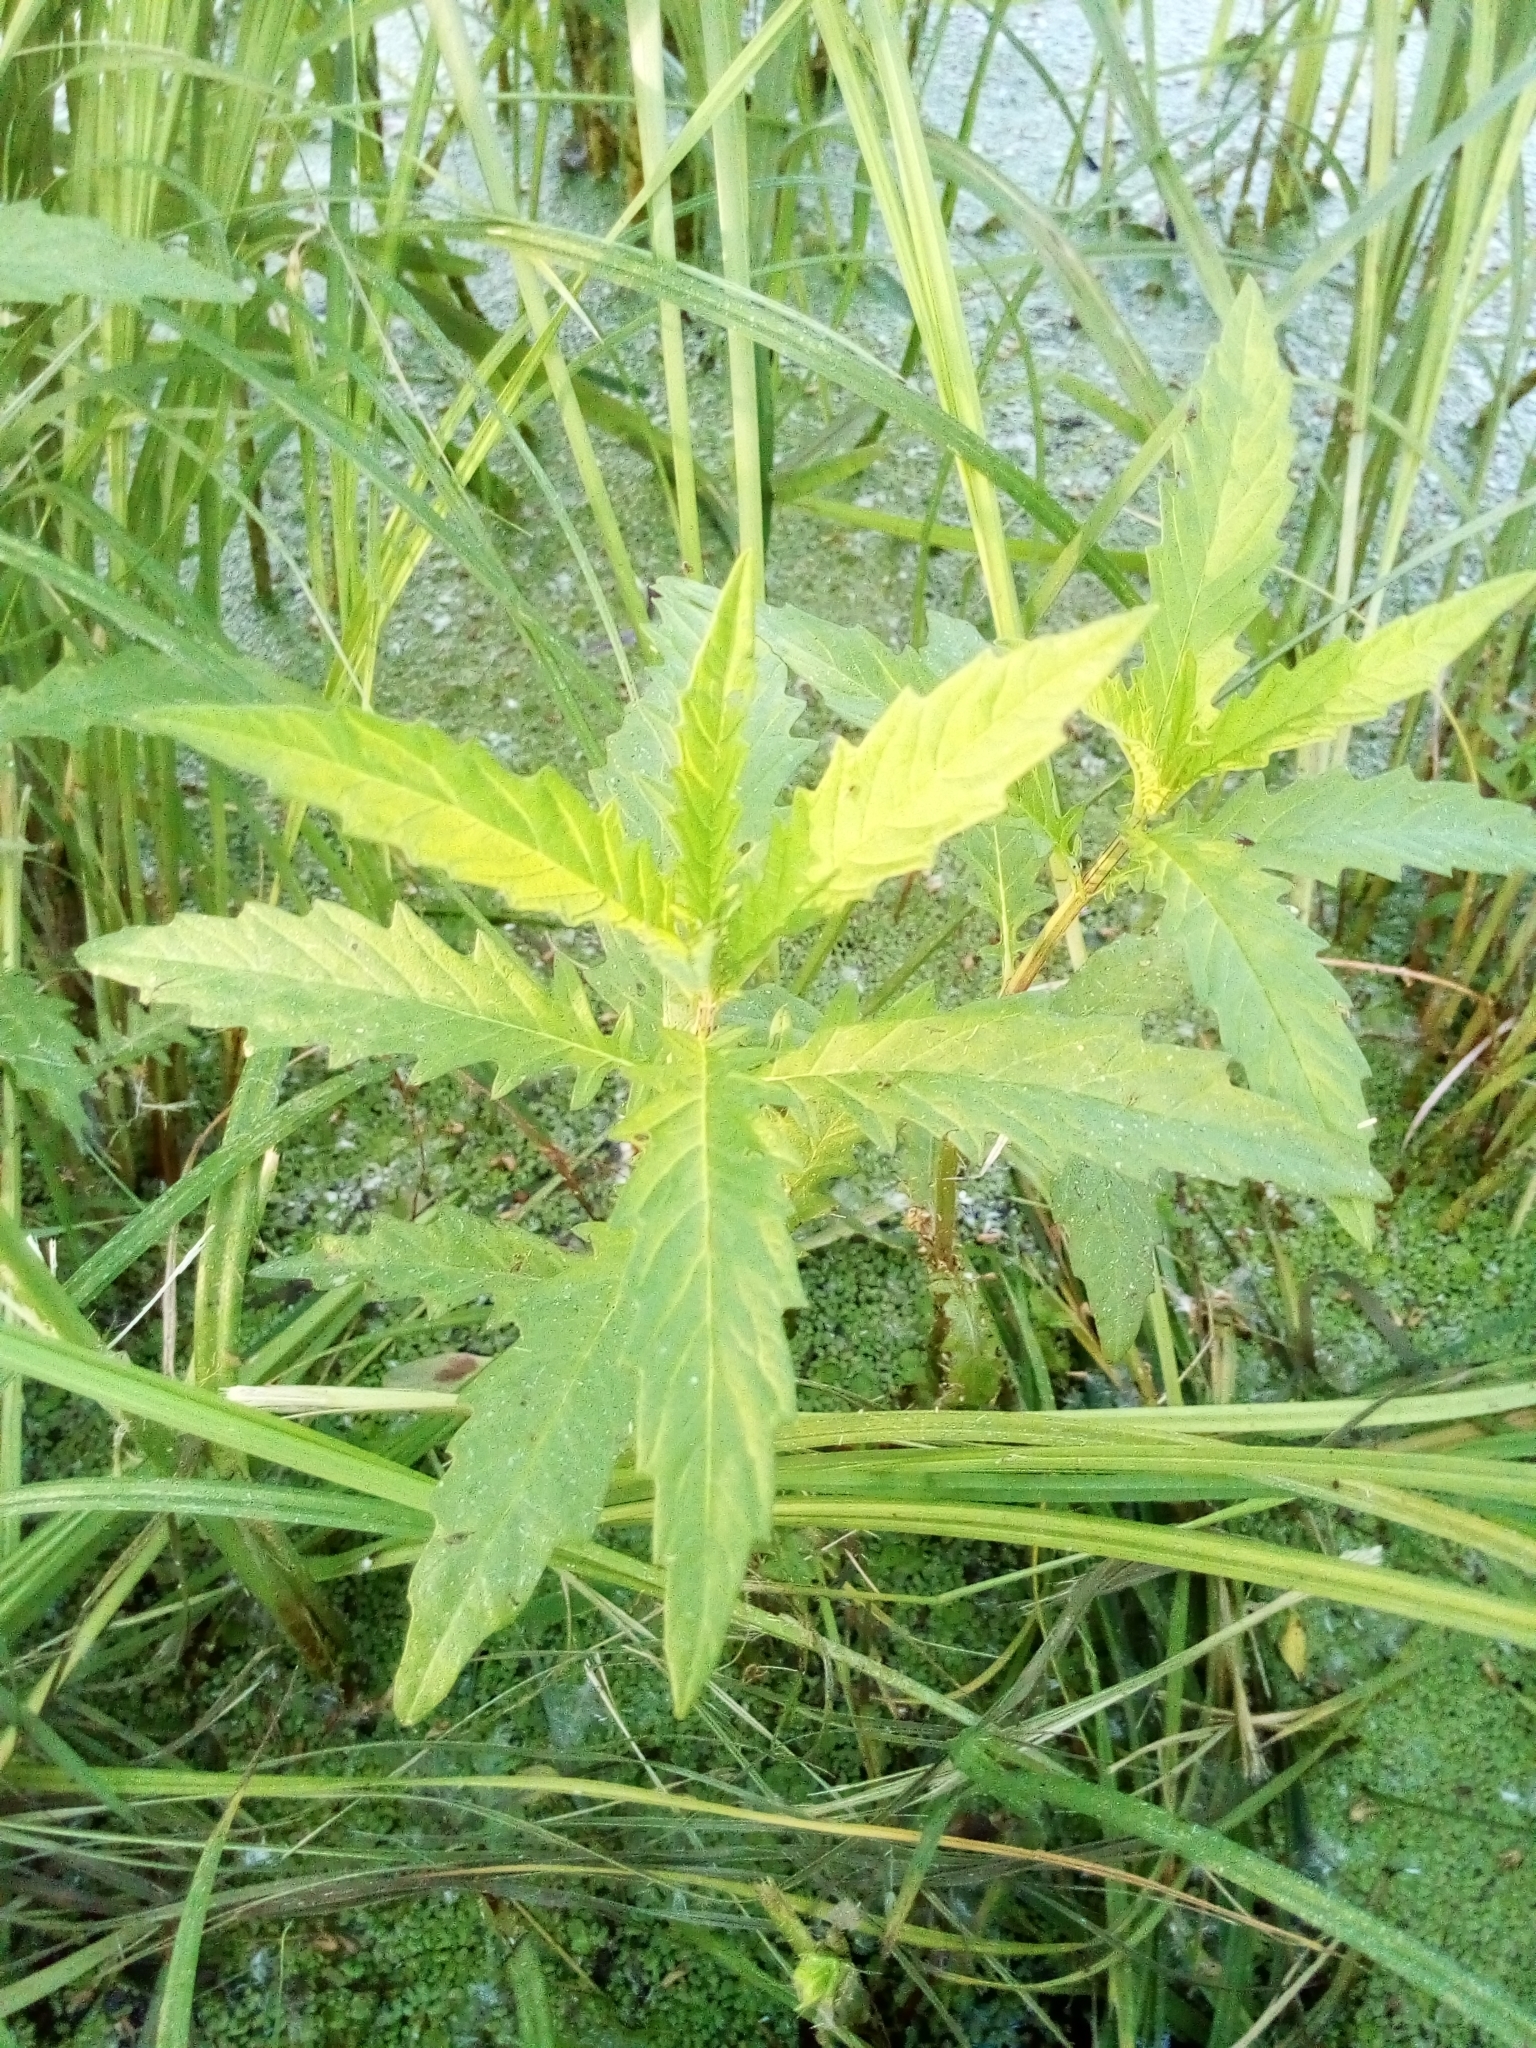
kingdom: Plantae
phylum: Tracheophyta
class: Magnoliopsida
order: Lamiales
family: Lamiaceae
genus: Lycopus
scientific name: Lycopus europaeus
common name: European bugleweed
